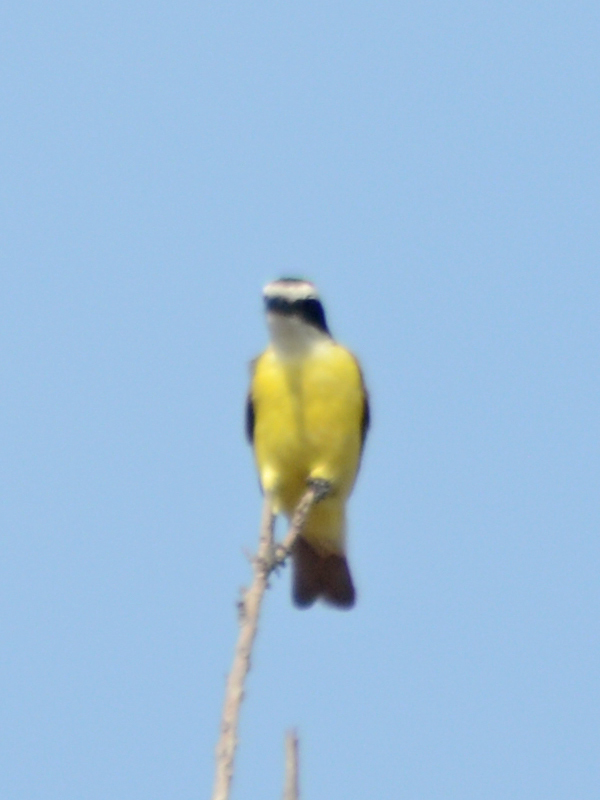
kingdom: Animalia
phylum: Chordata
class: Aves
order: Passeriformes
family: Tyrannidae
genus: Pitangus
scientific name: Pitangus sulphuratus
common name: Great kiskadee
